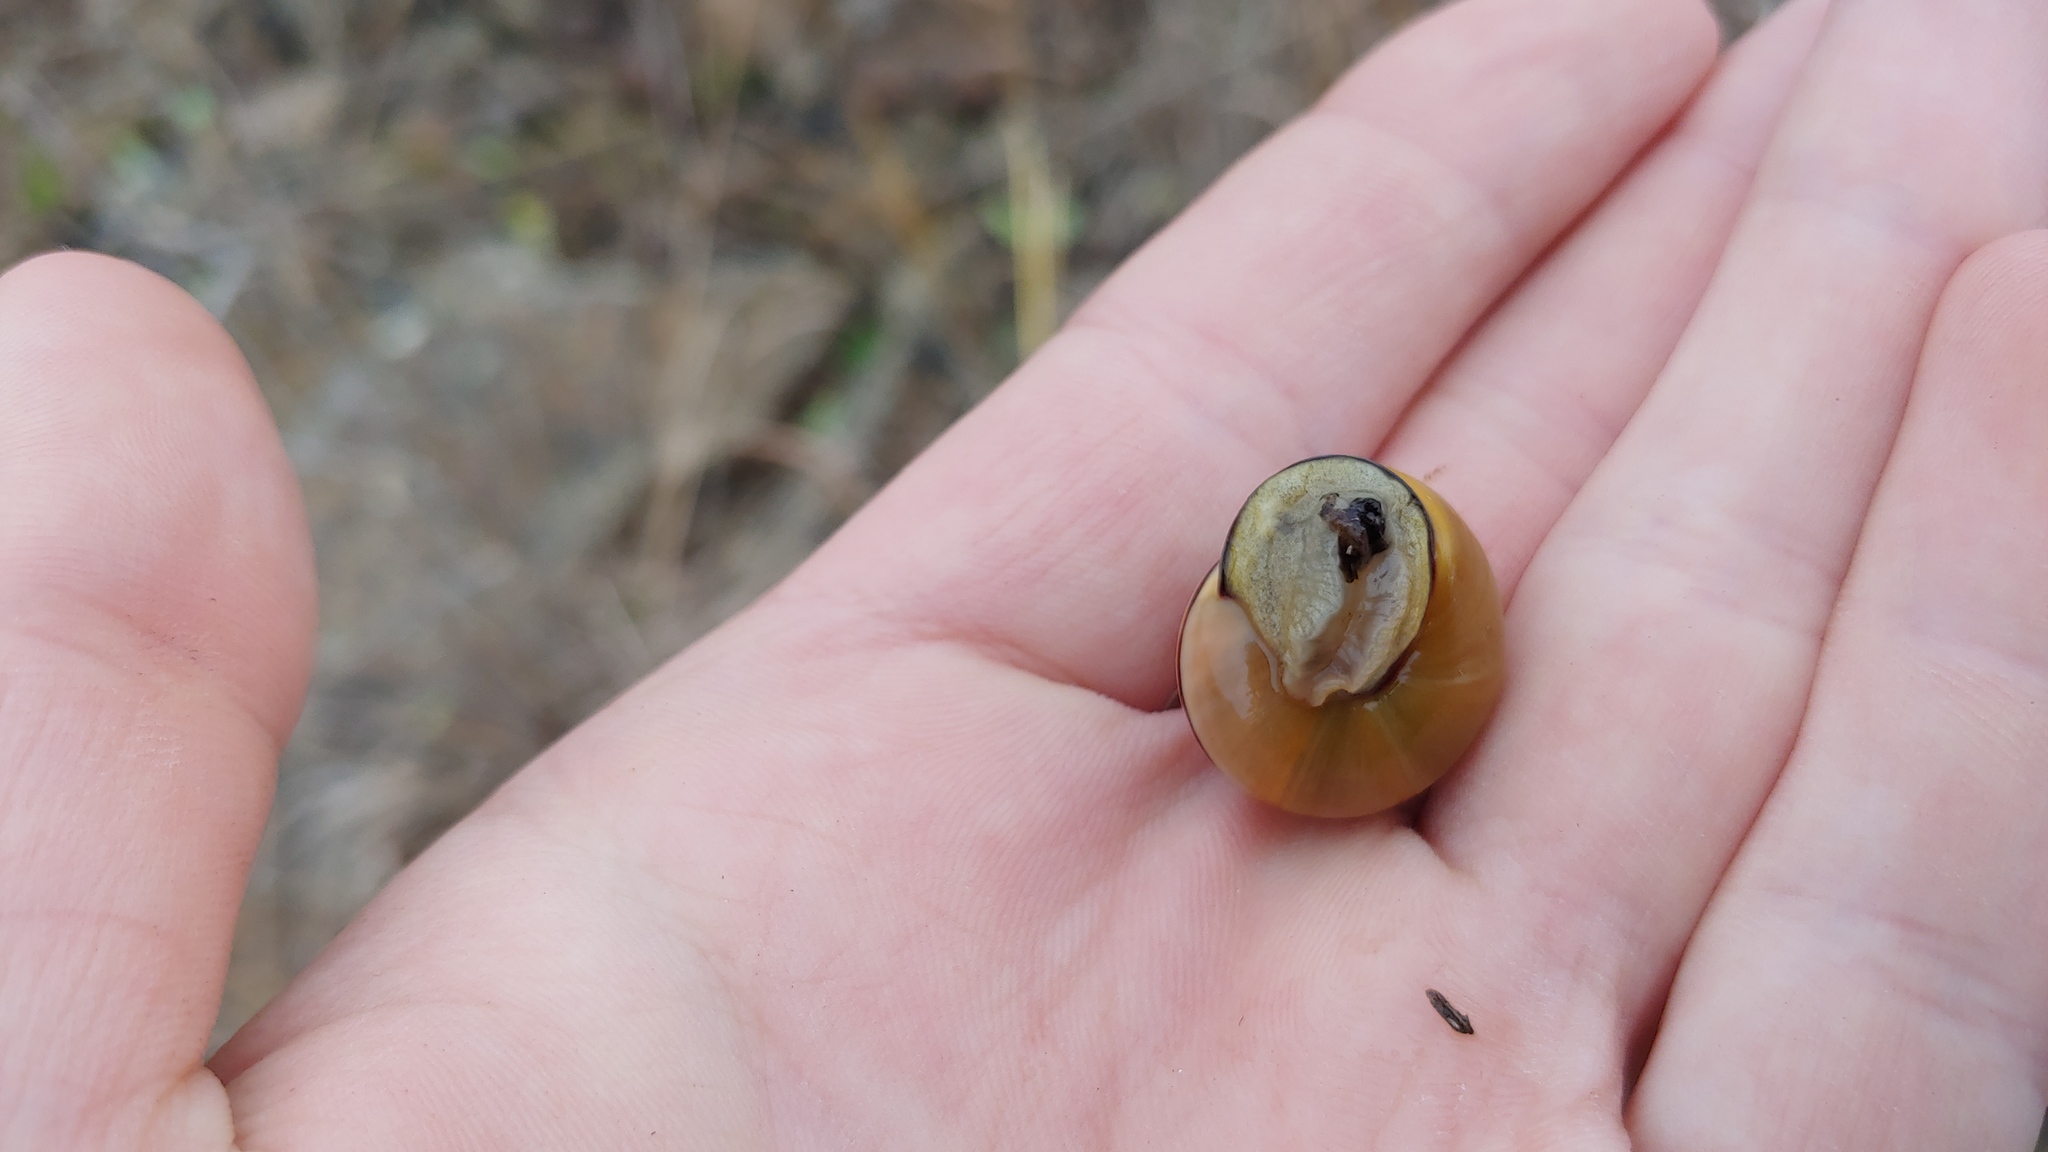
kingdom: Animalia
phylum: Mollusca
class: Gastropoda
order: Stylommatophora
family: Helicidae
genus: Cepaea
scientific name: Cepaea nemoralis
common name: Grovesnail
